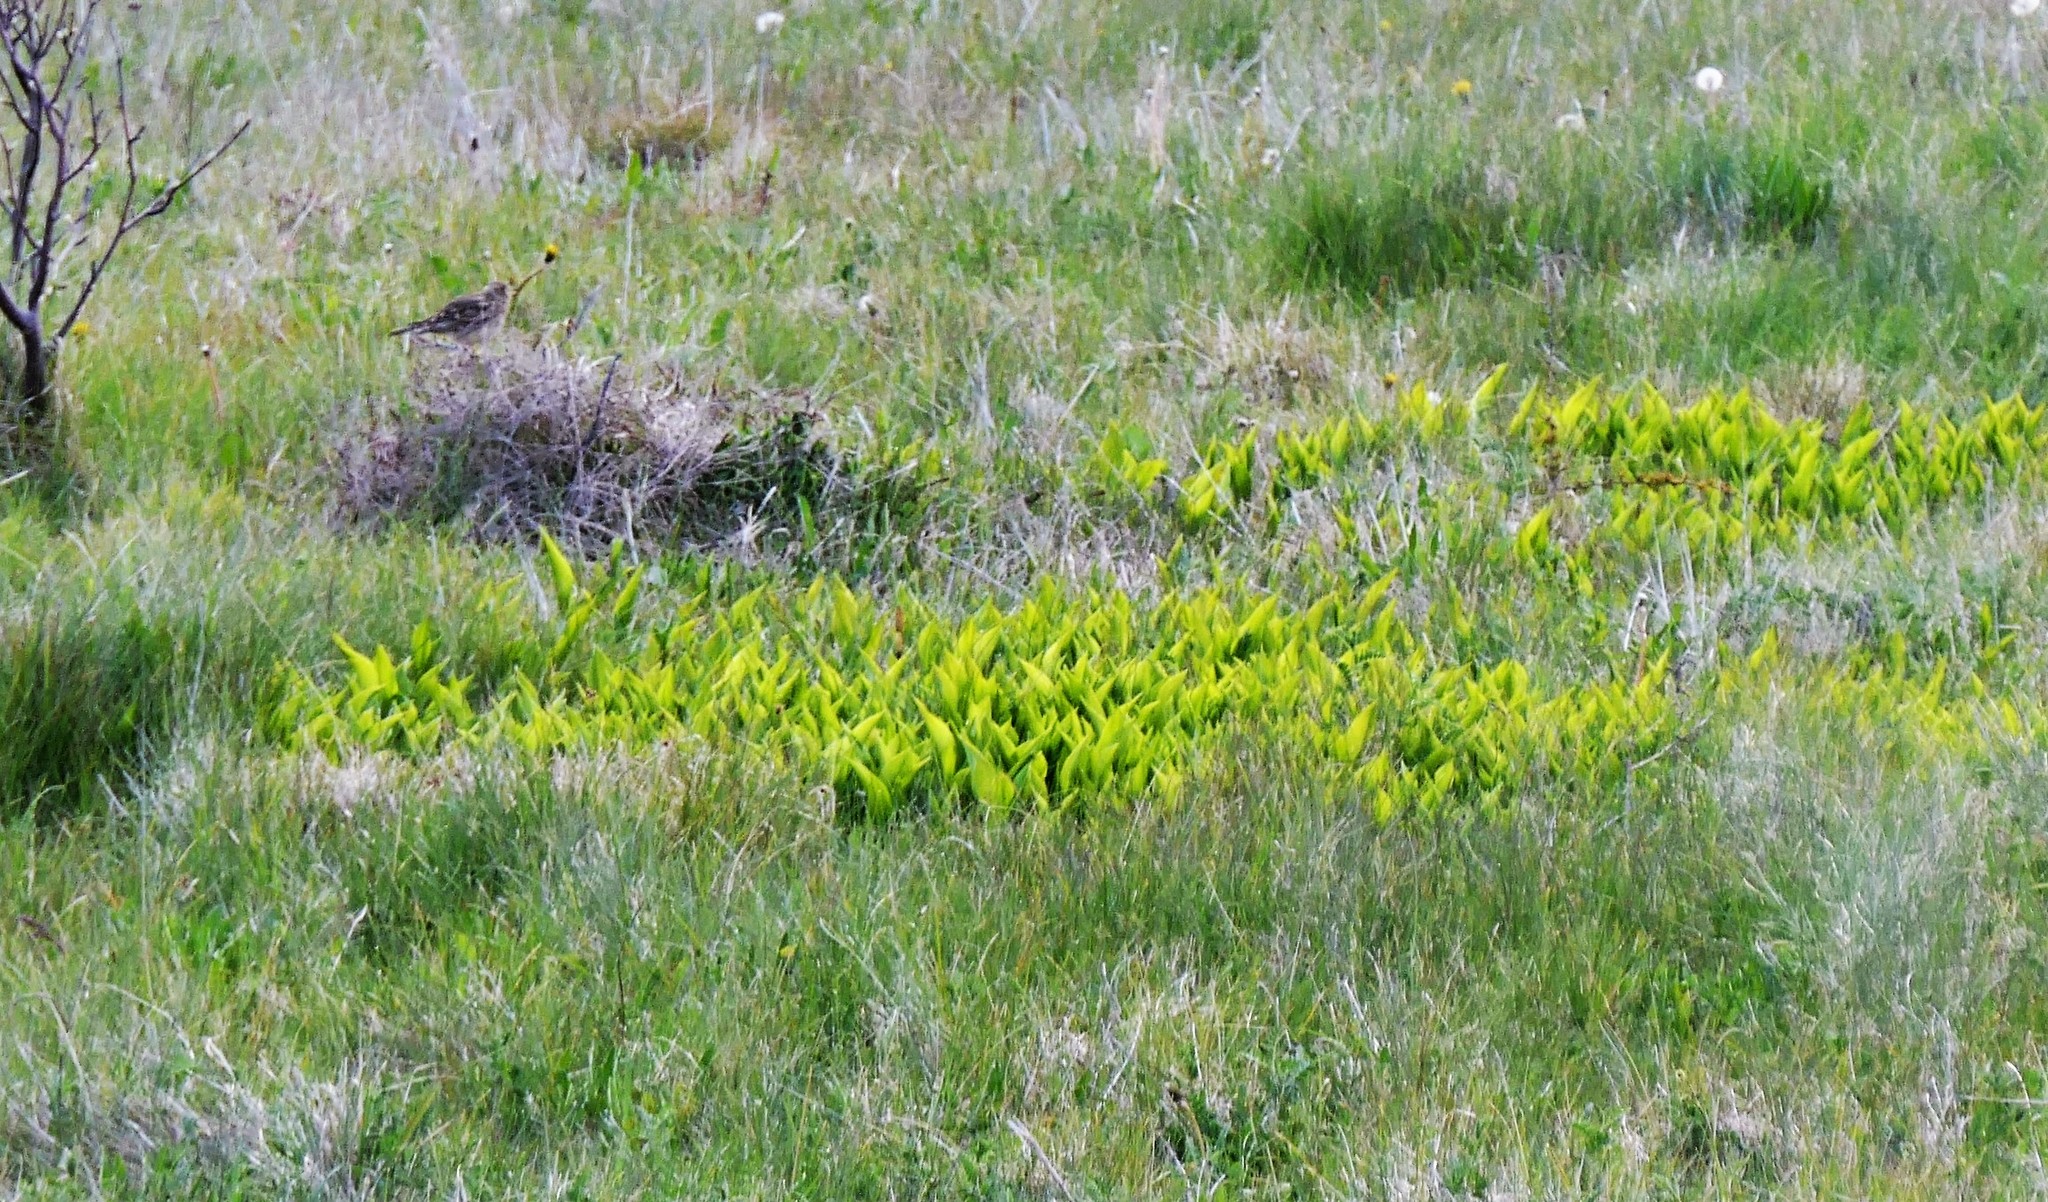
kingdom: Plantae
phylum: Tracheophyta
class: Liliopsida
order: Asparagales
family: Asparagaceae
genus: Convallaria
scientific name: Convallaria majalis
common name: Lily-of-the-valley
